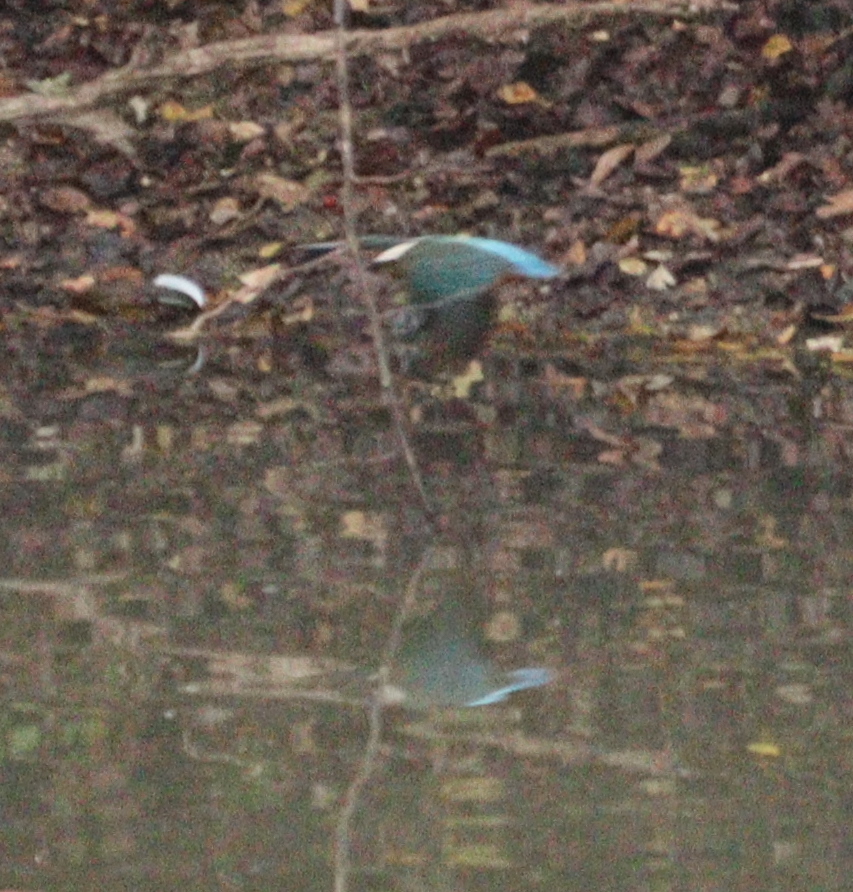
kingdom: Animalia
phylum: Chordata
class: Aves
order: Coraciiformes
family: Alcedinidae
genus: Alcedo
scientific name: Alcedo atthis
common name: Common kingfisher
